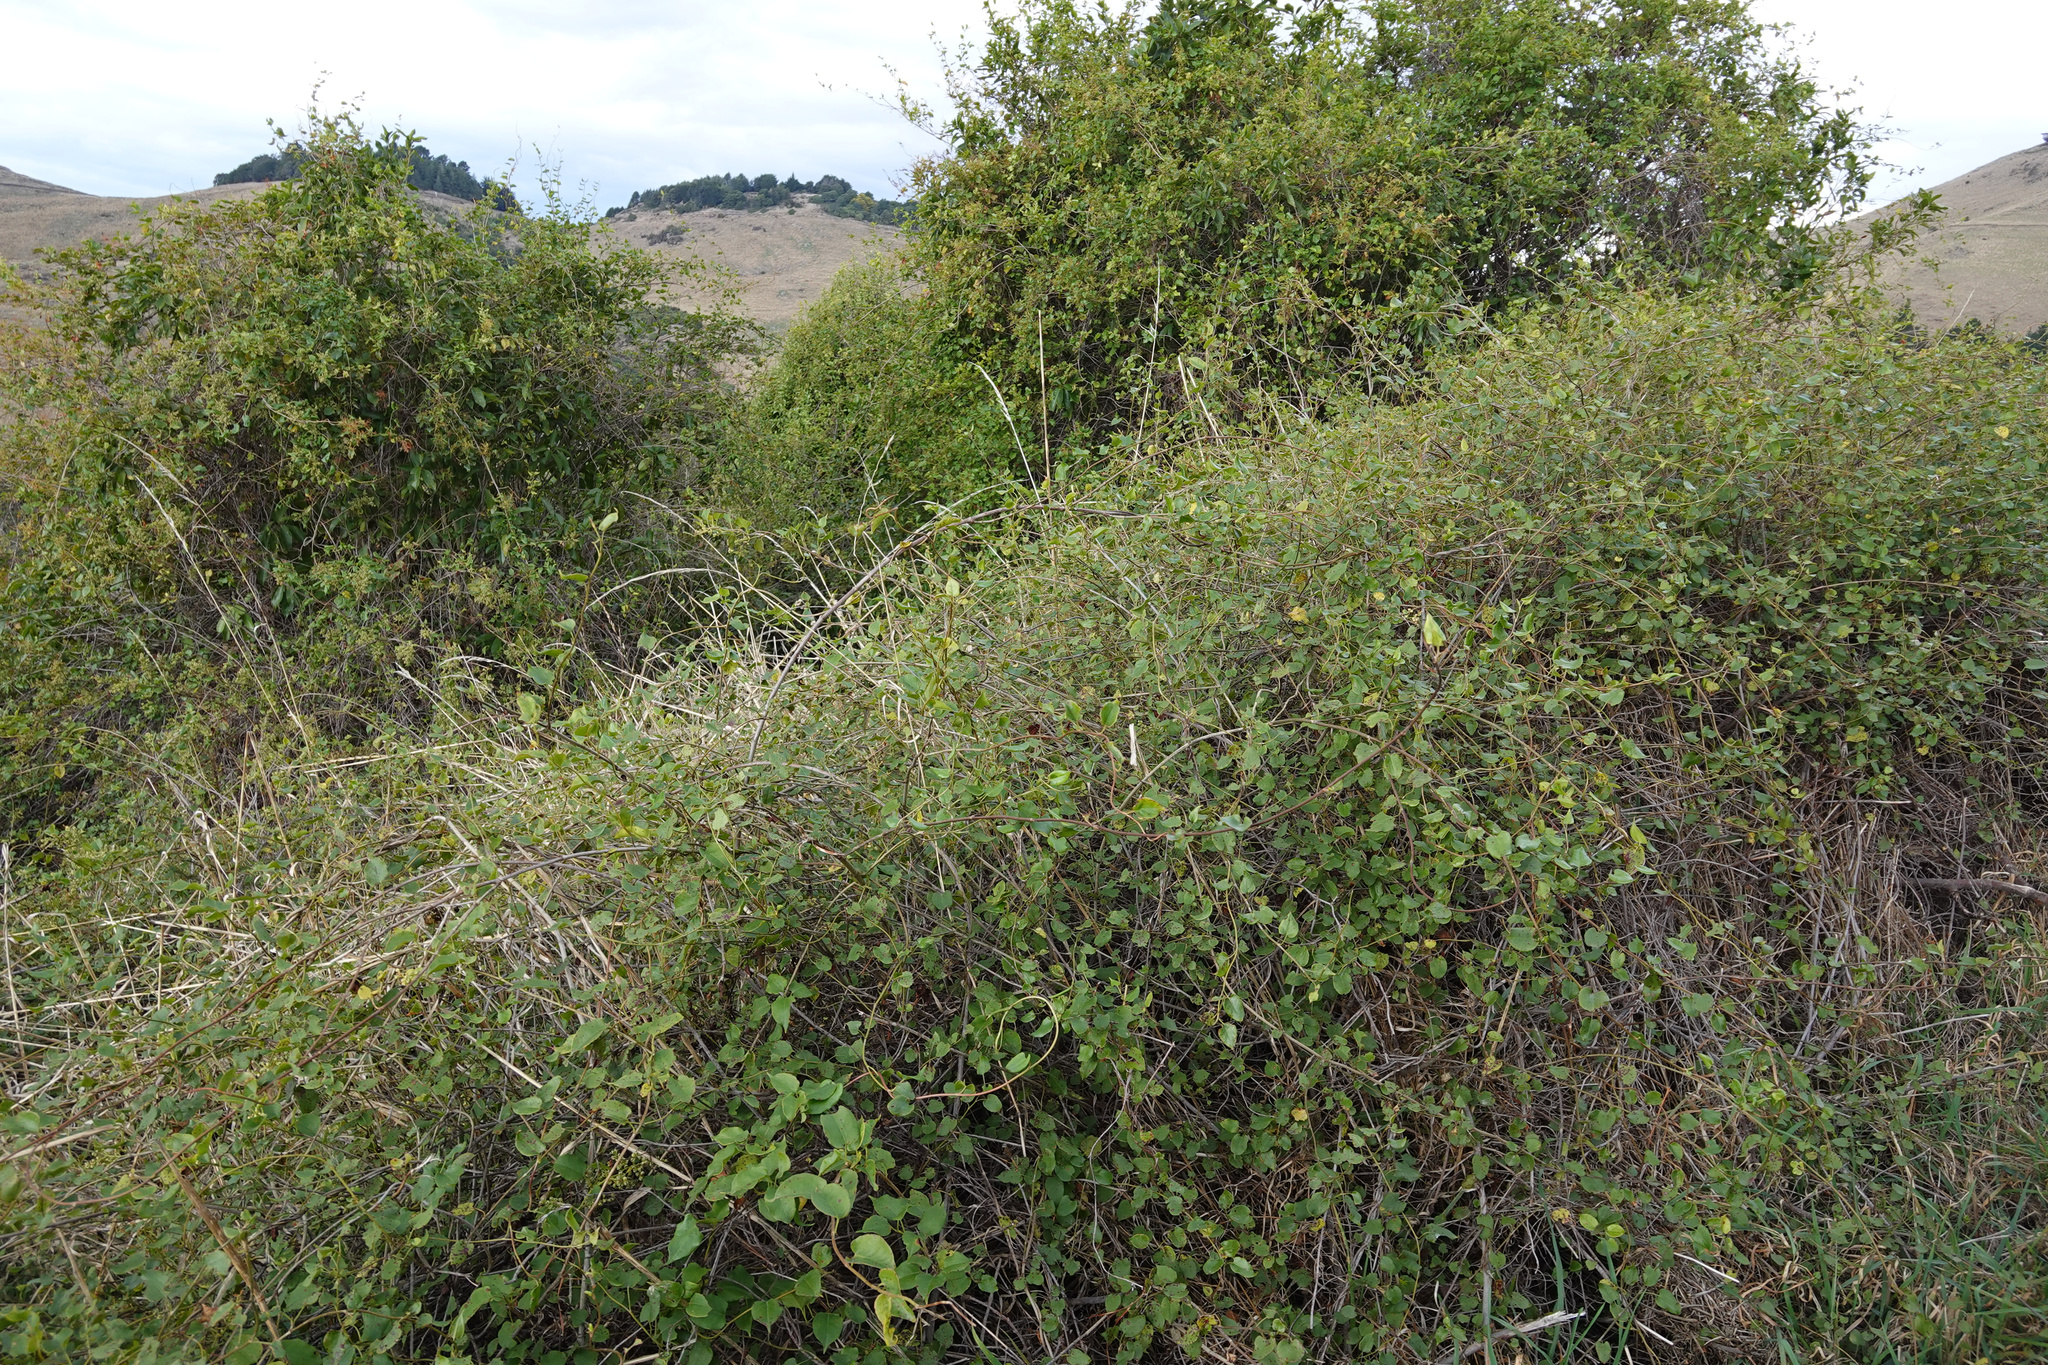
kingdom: Plantae
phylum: Tracheophyta
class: Magnoliopsida
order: Caryophyllales
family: Polygonaceae
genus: Muehlenbeckia
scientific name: Muehlenbeckia australis
